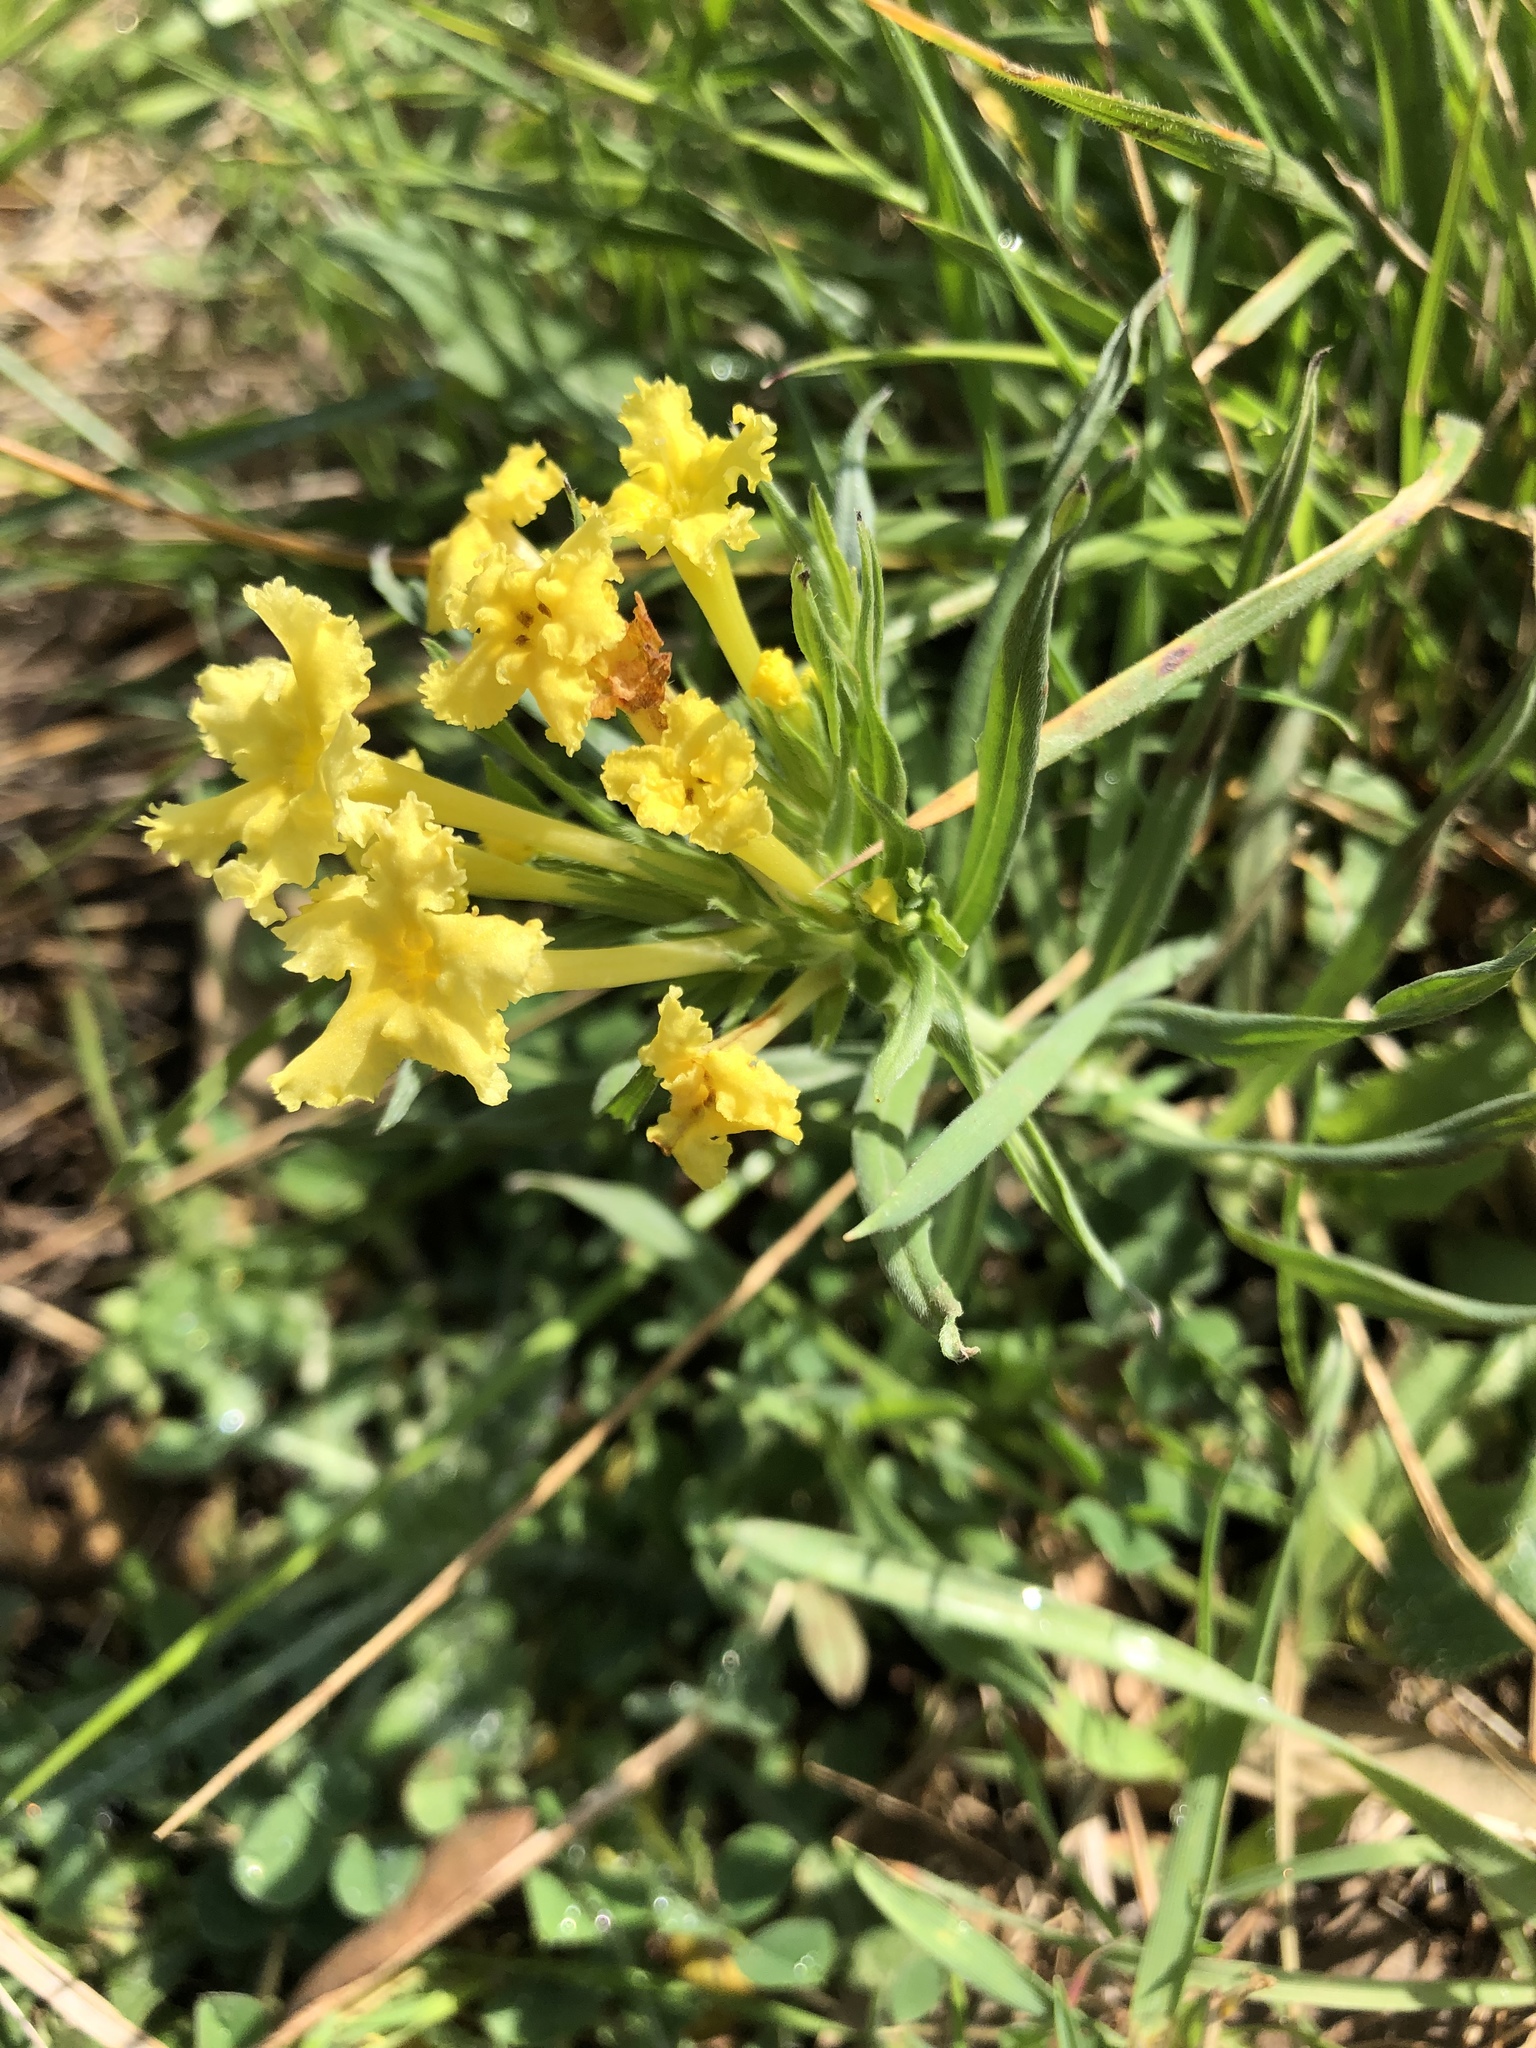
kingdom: Plantae
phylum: Tracheophyta
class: Magnoliopsida
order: Boraginales
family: Boraginaceae
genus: Lithospermum
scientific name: Lithospermum incisum
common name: Fringed gromwell
